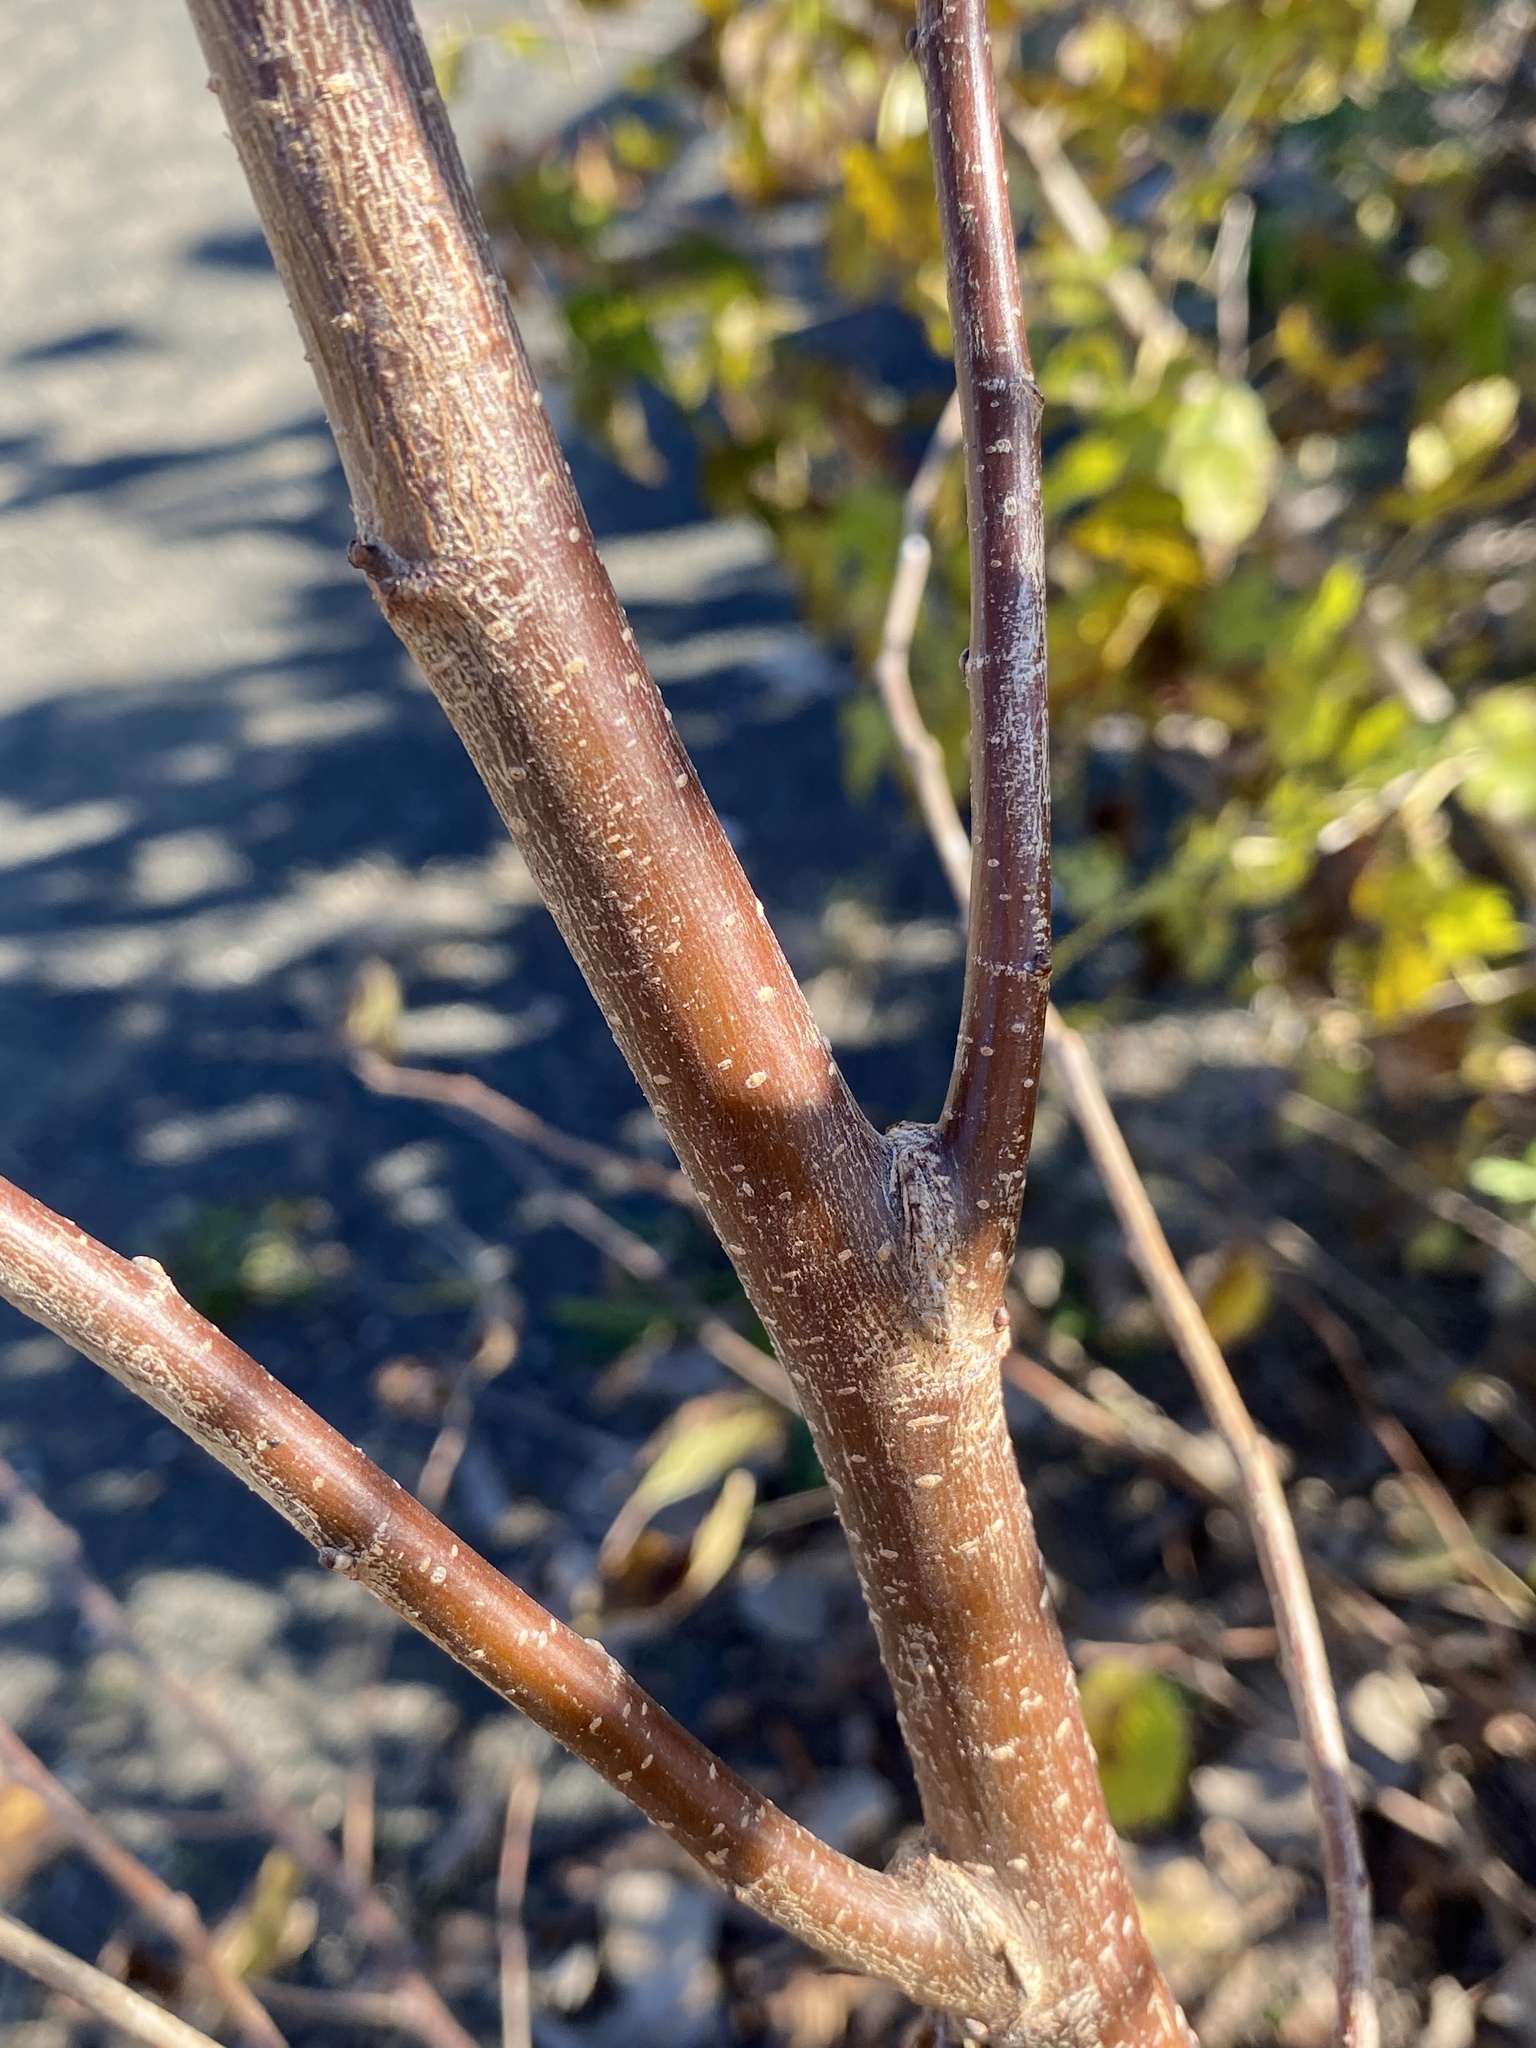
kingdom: Plantae
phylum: Tracheophyta
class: Magnoliopsida
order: Cornales
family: Cornaceae
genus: Cornus
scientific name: Cornus amomum
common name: Silky dogwood
